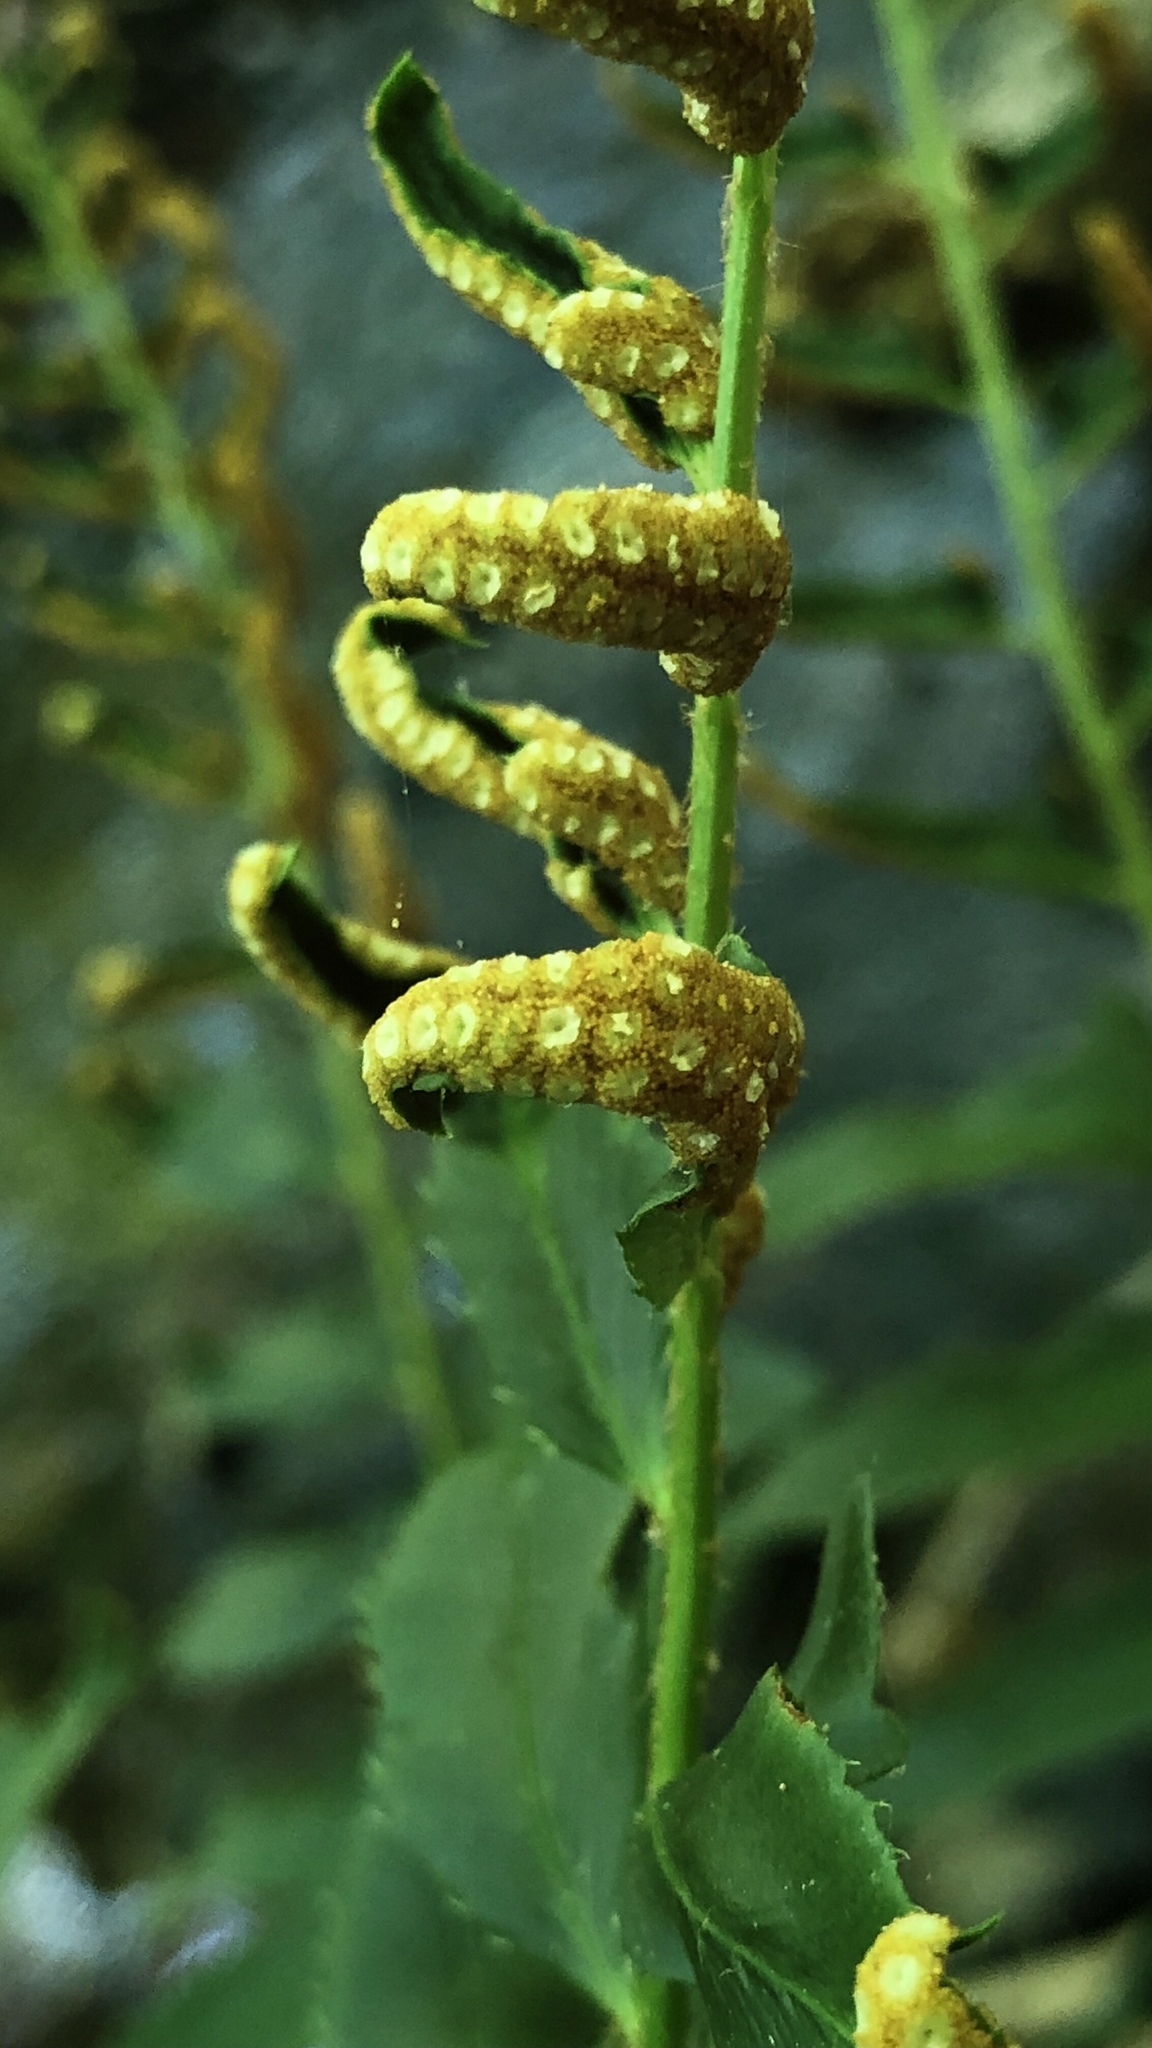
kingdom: Plantae
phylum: Tracheophyta
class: Polypodiopsida
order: Polypodiales
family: Dryopteridaceae
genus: Polystichum
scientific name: Polystichum acrostichoides
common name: Christmas fern
